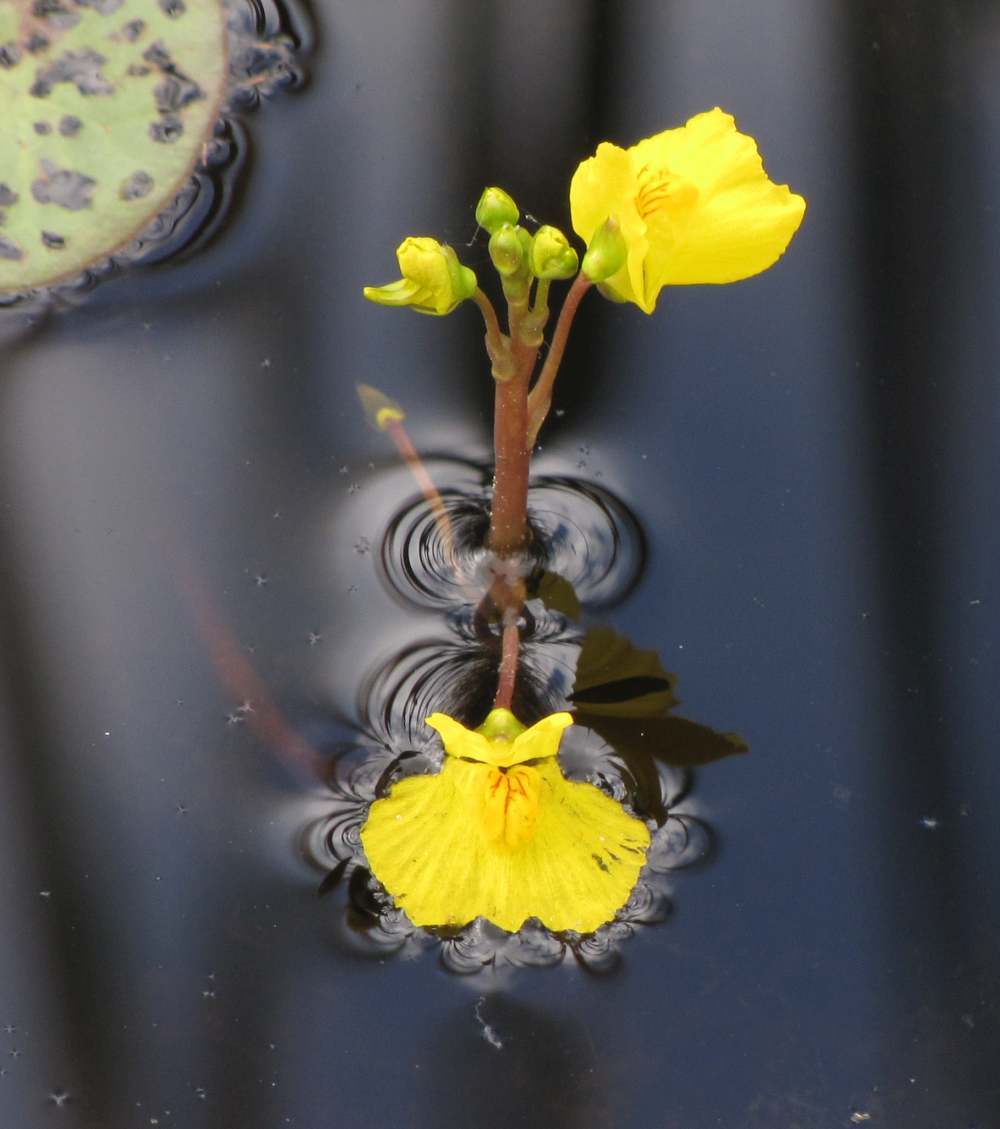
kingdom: Plantae
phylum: Tracheophyta
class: Magnoliopsida
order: Lamiales
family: Lentibulariaceae
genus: Utricularia
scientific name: Utricularia macrorhiza
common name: Common bladderwort
